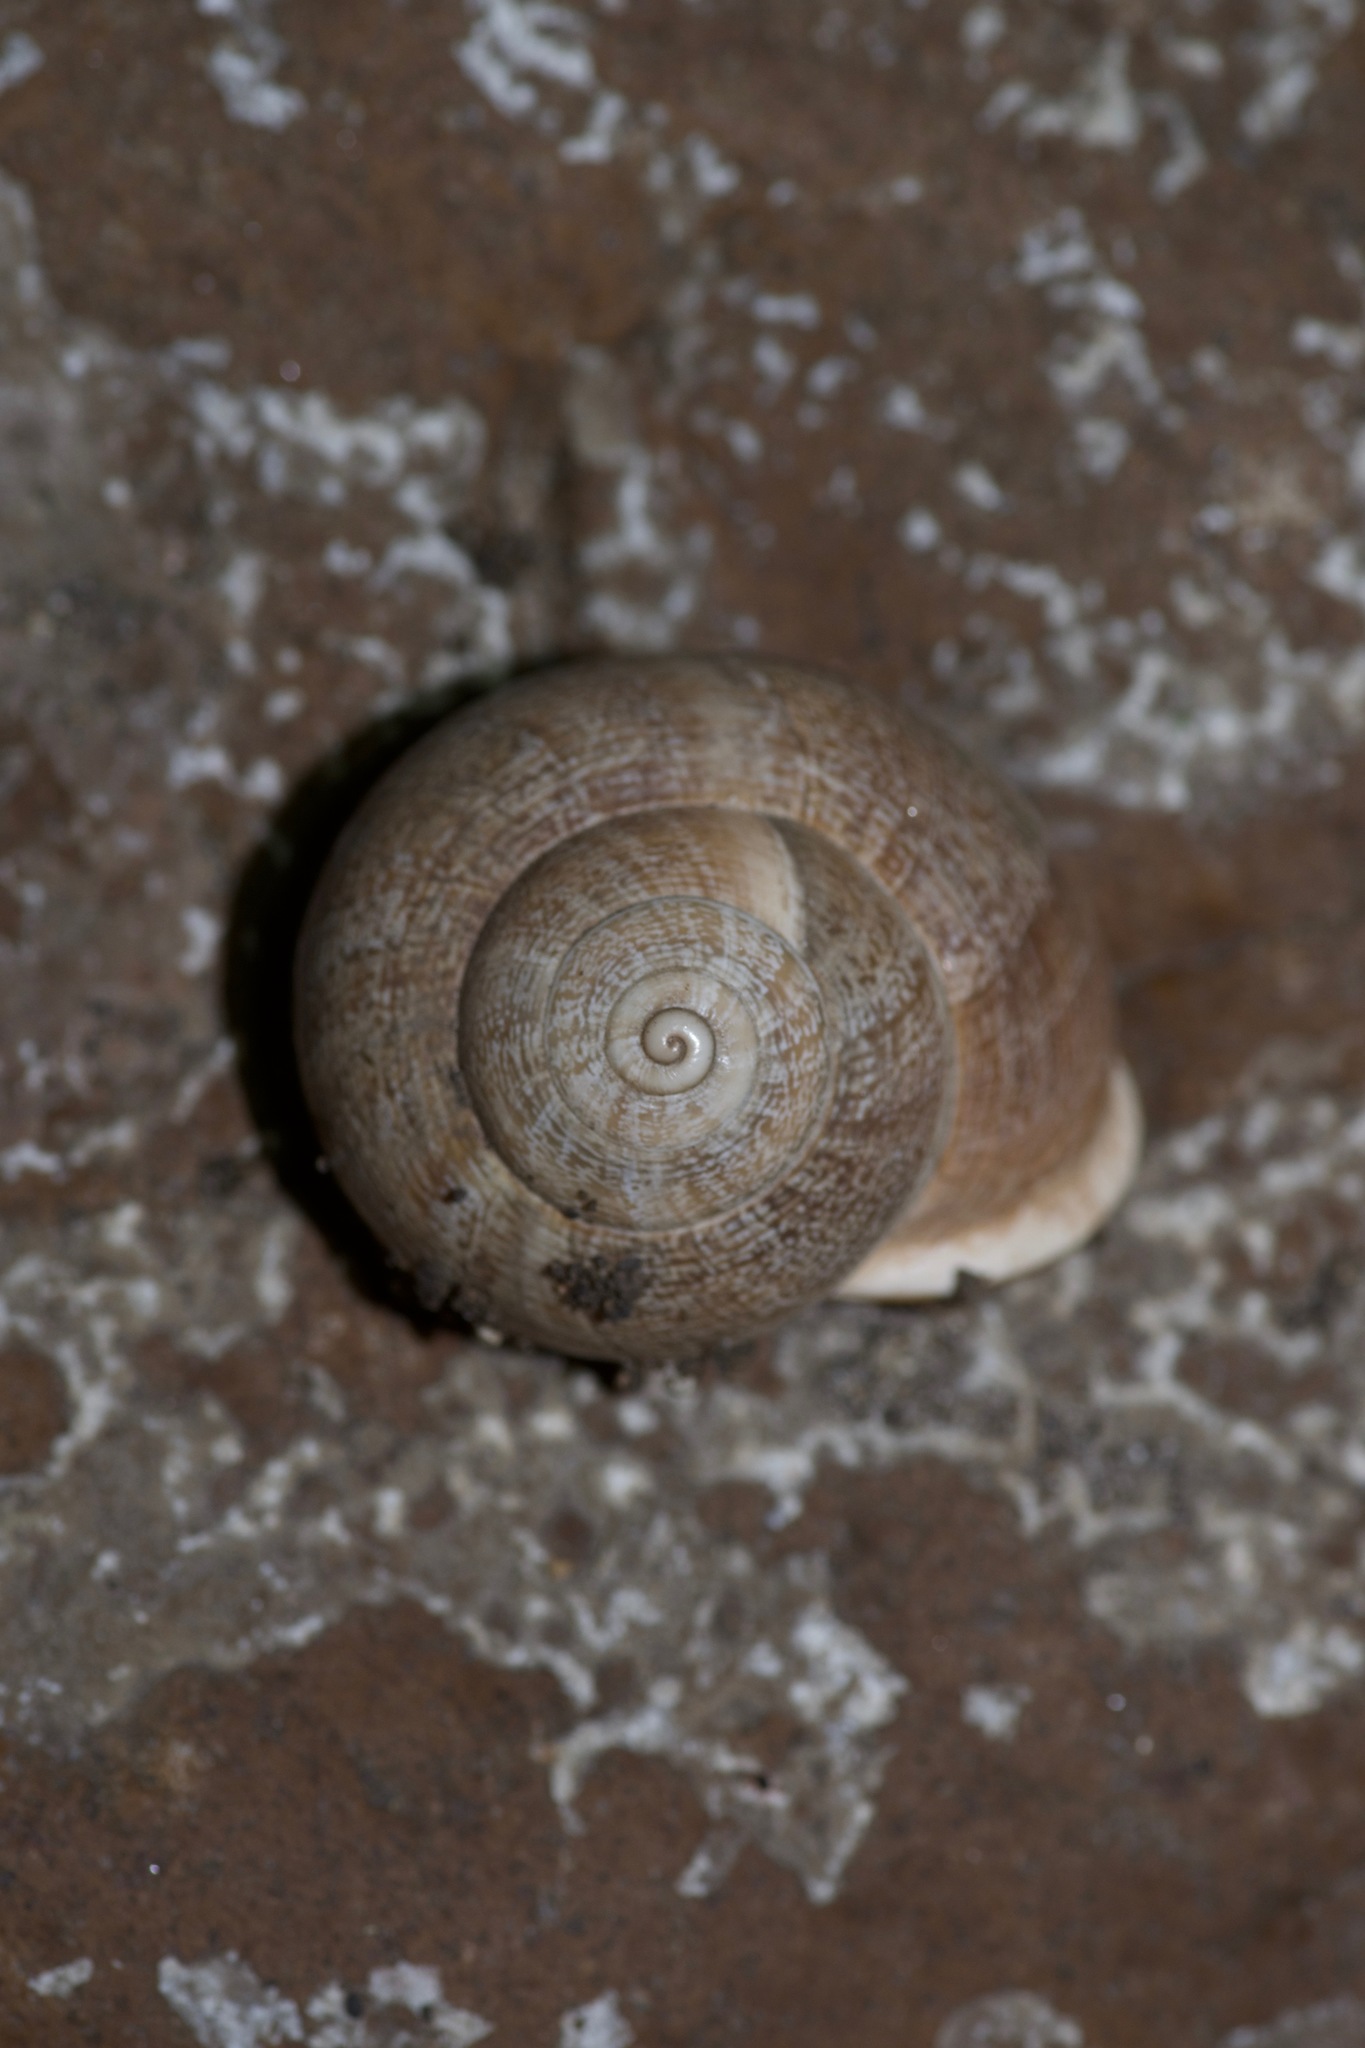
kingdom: Animalia
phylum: Mollusca
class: Gastropoda
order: Stylommatophora
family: Helicidae
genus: Otala
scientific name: Otala lactea
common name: Milk snail
